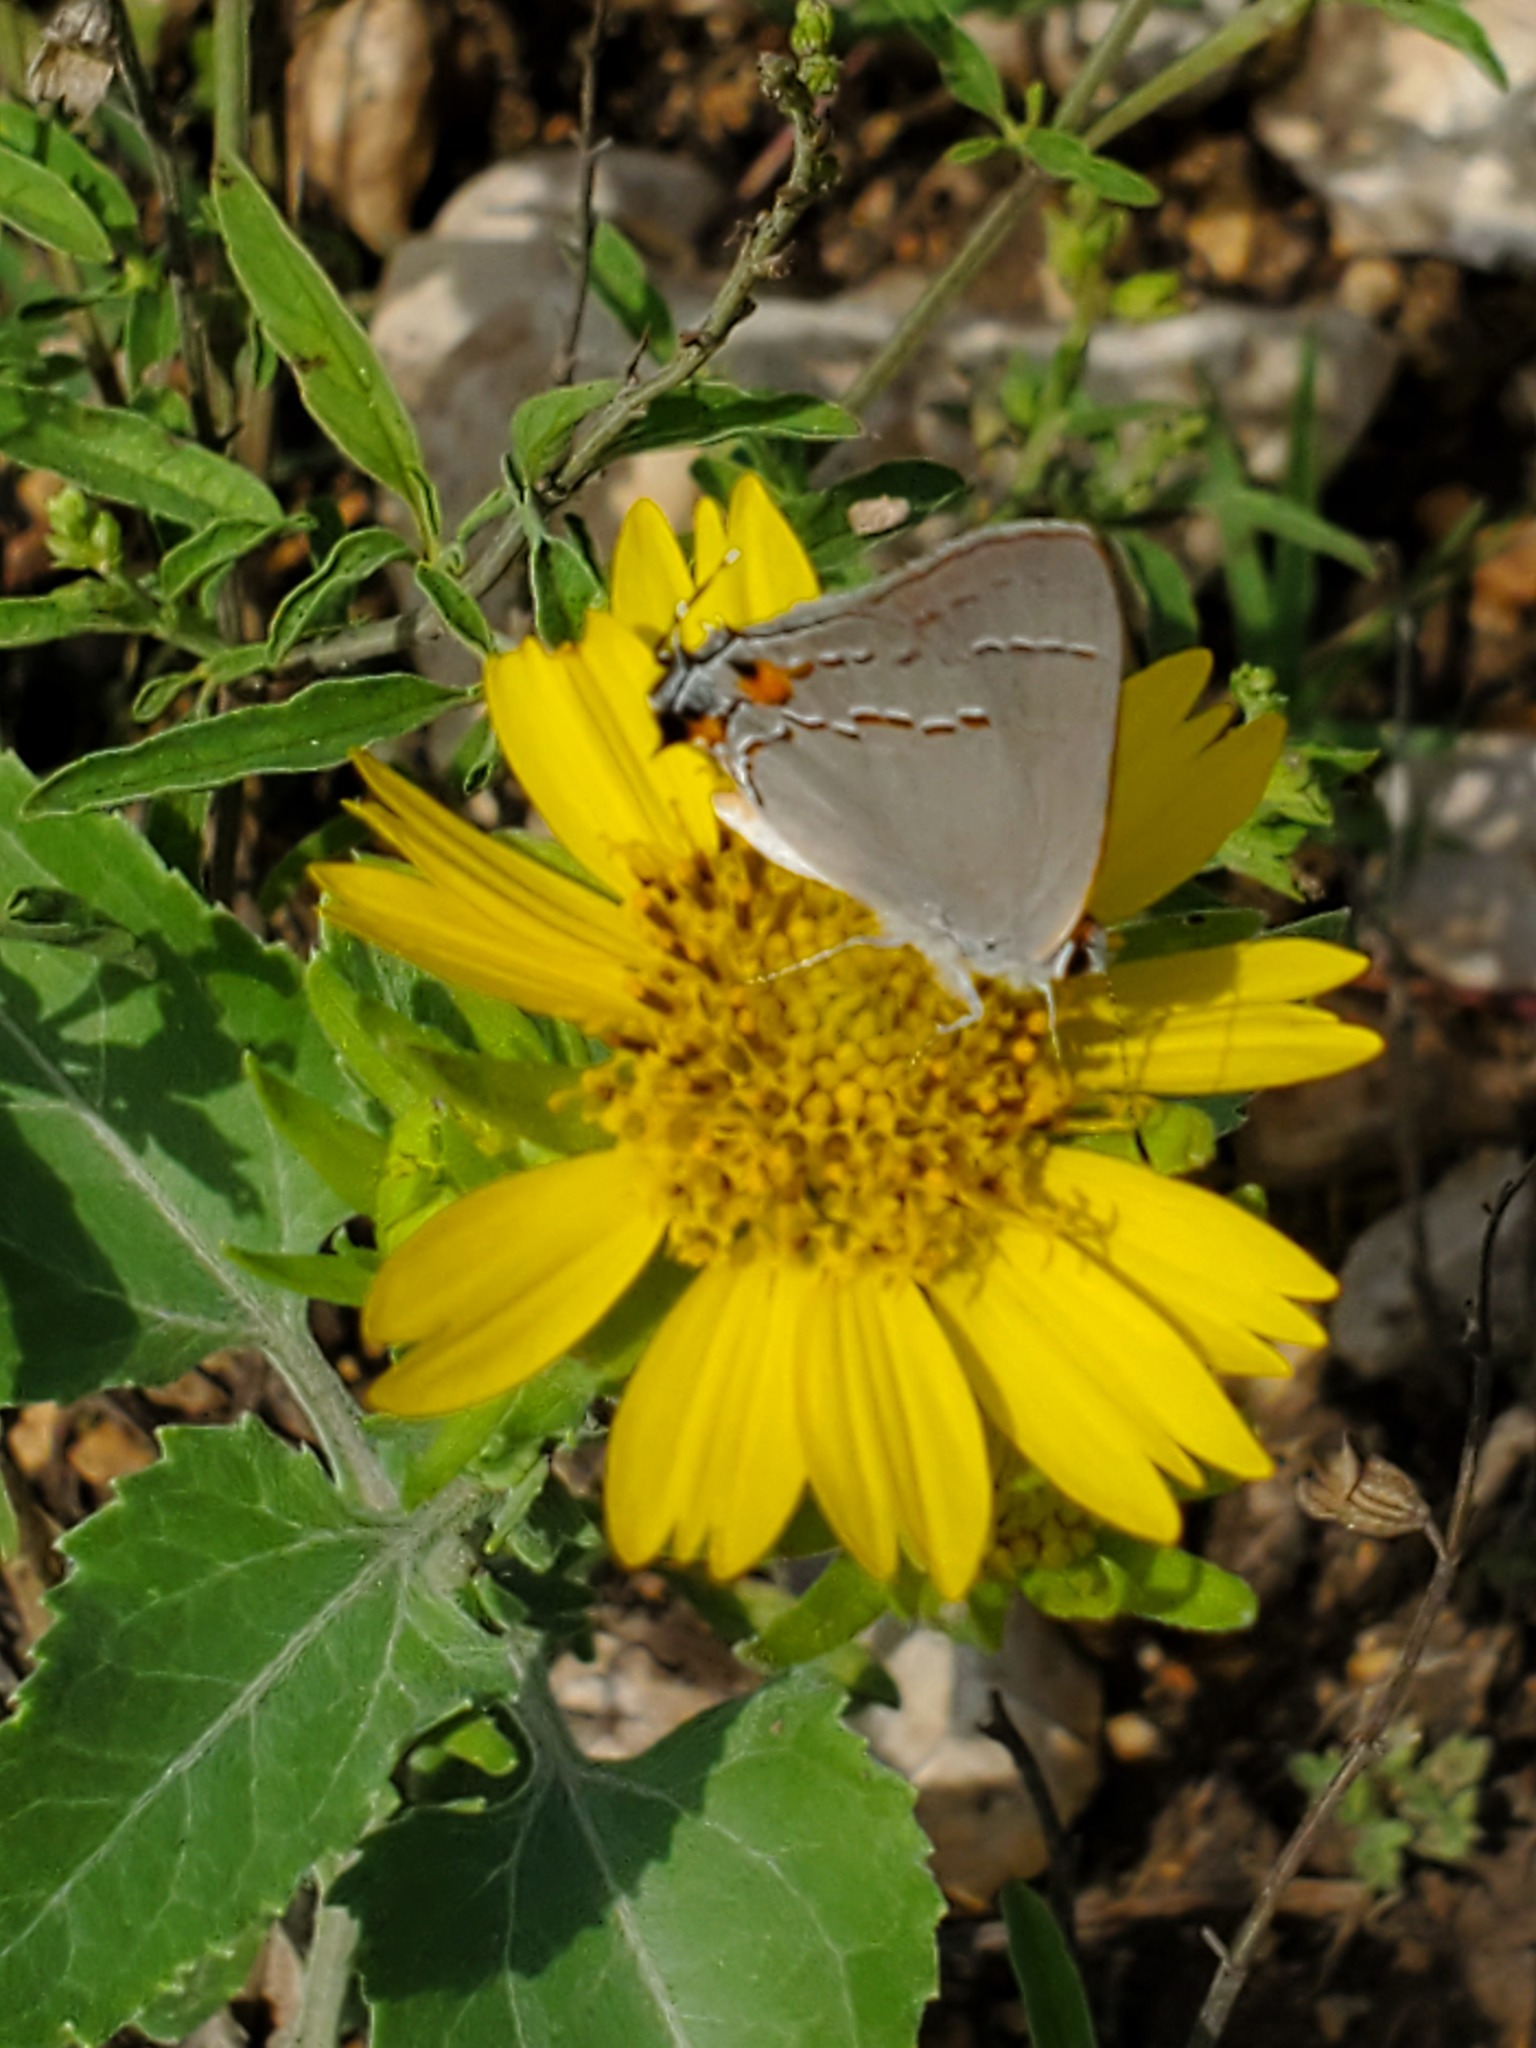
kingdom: Animalia
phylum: Arthropoda
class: Insecta
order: Lepidoptera
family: Lycaenidae
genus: Strymon
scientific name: Strymon melinus
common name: Gray hairstreak
